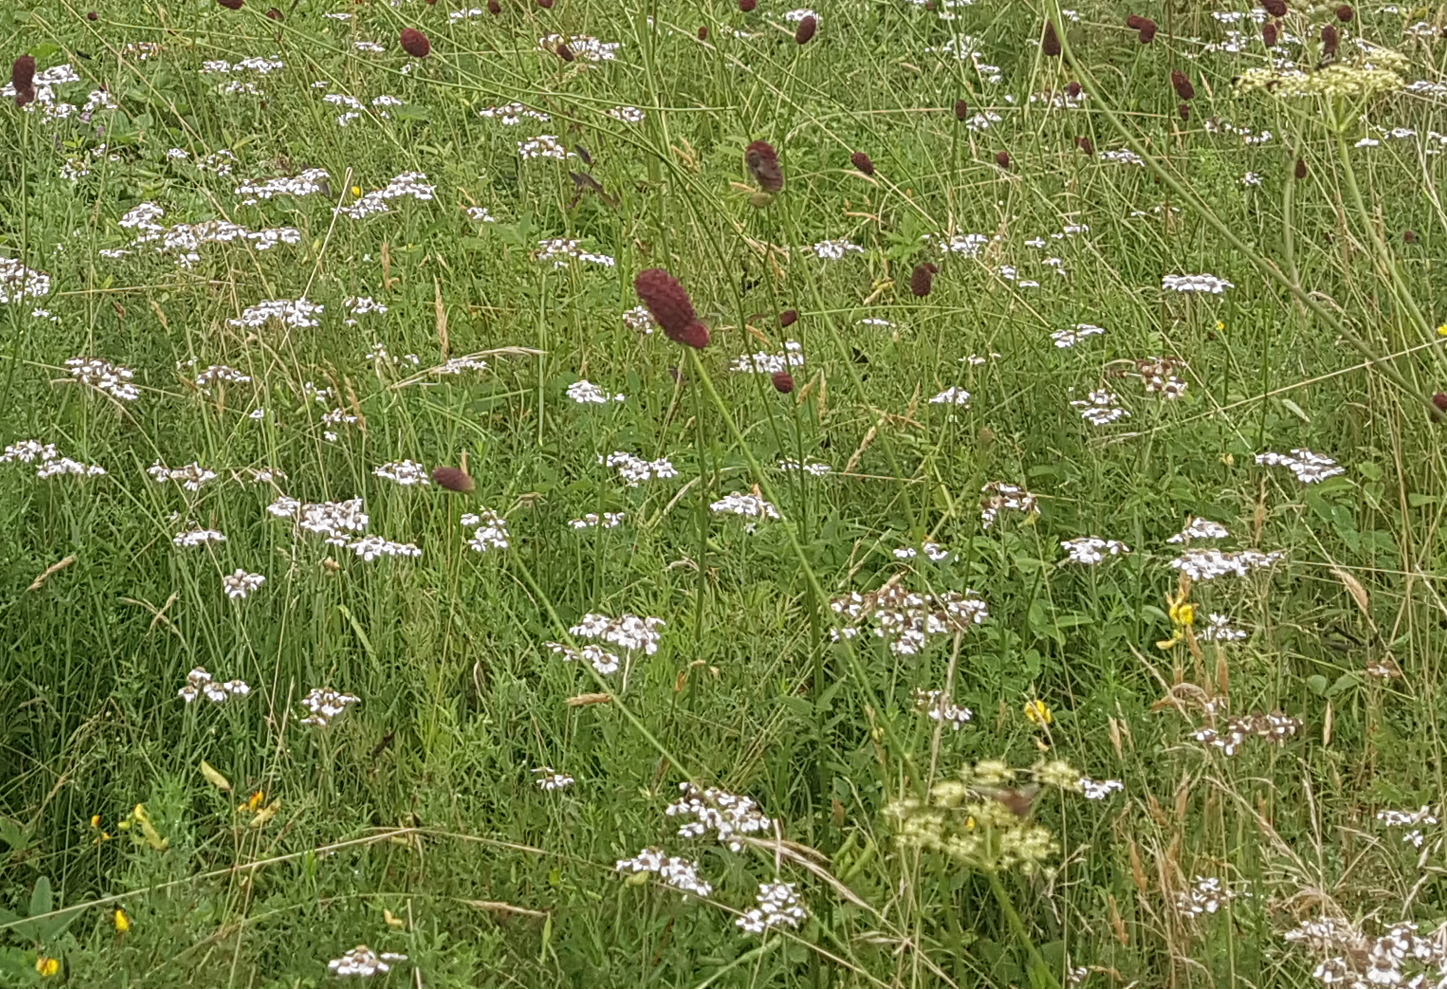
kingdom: Plantae
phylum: Tracheophyta
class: Magnoliopsida
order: Asterales
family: Asteraceae
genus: Achillea
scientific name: Achillea ptarmica
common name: Sneezeweed
